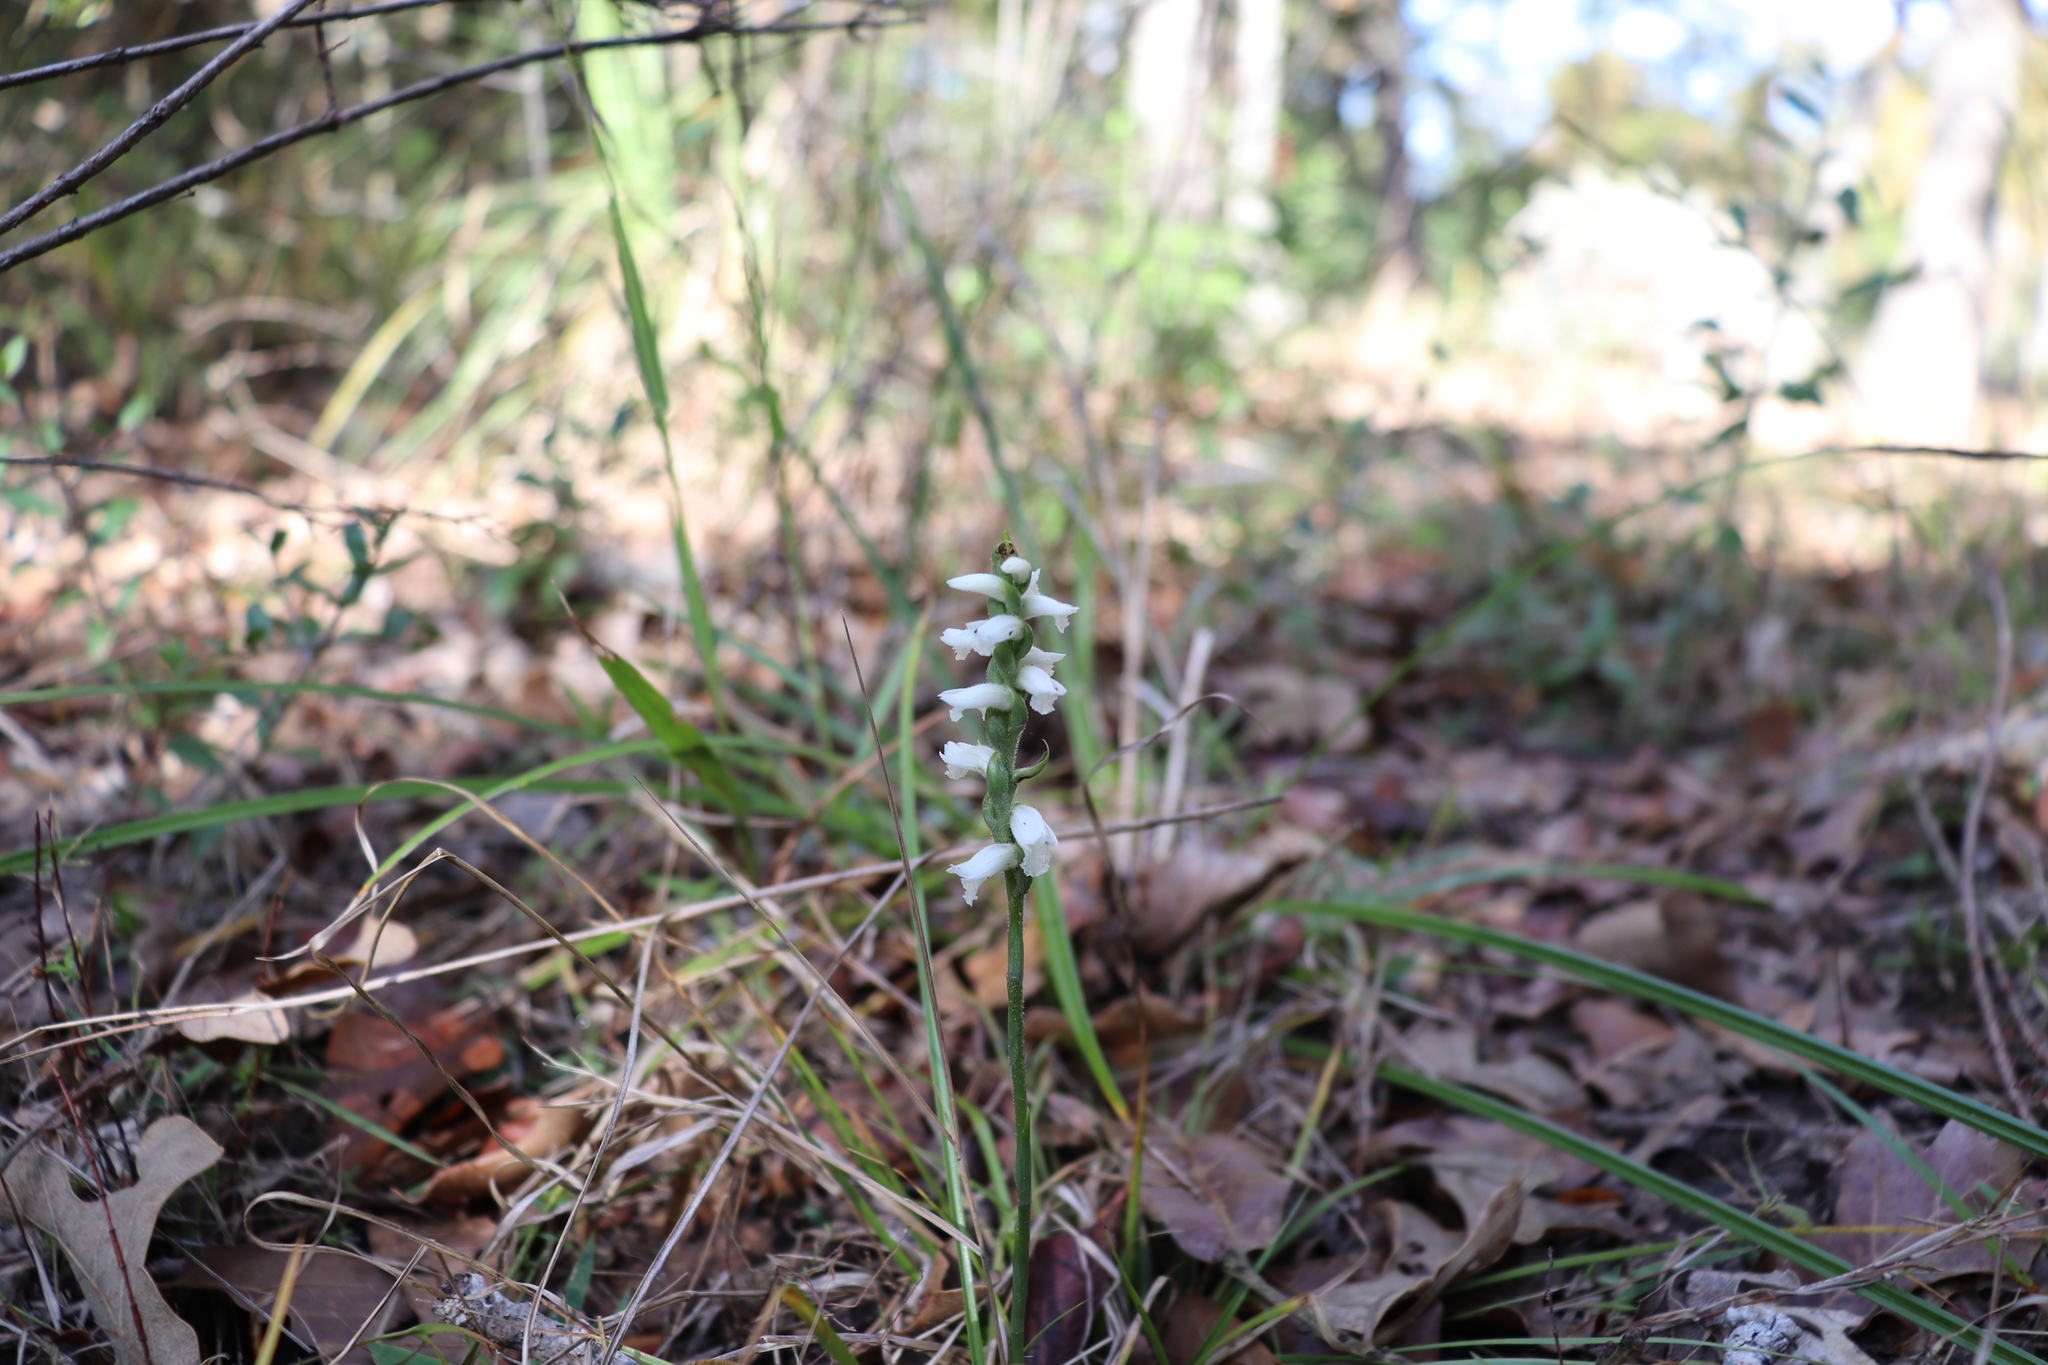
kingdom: Plantae
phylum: Tracheophyta
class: Liliopsida
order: Asparagales
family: Orchidaceae
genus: Spiranthes
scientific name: Spiranthes cernua
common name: Dropping ladies'-tresses
